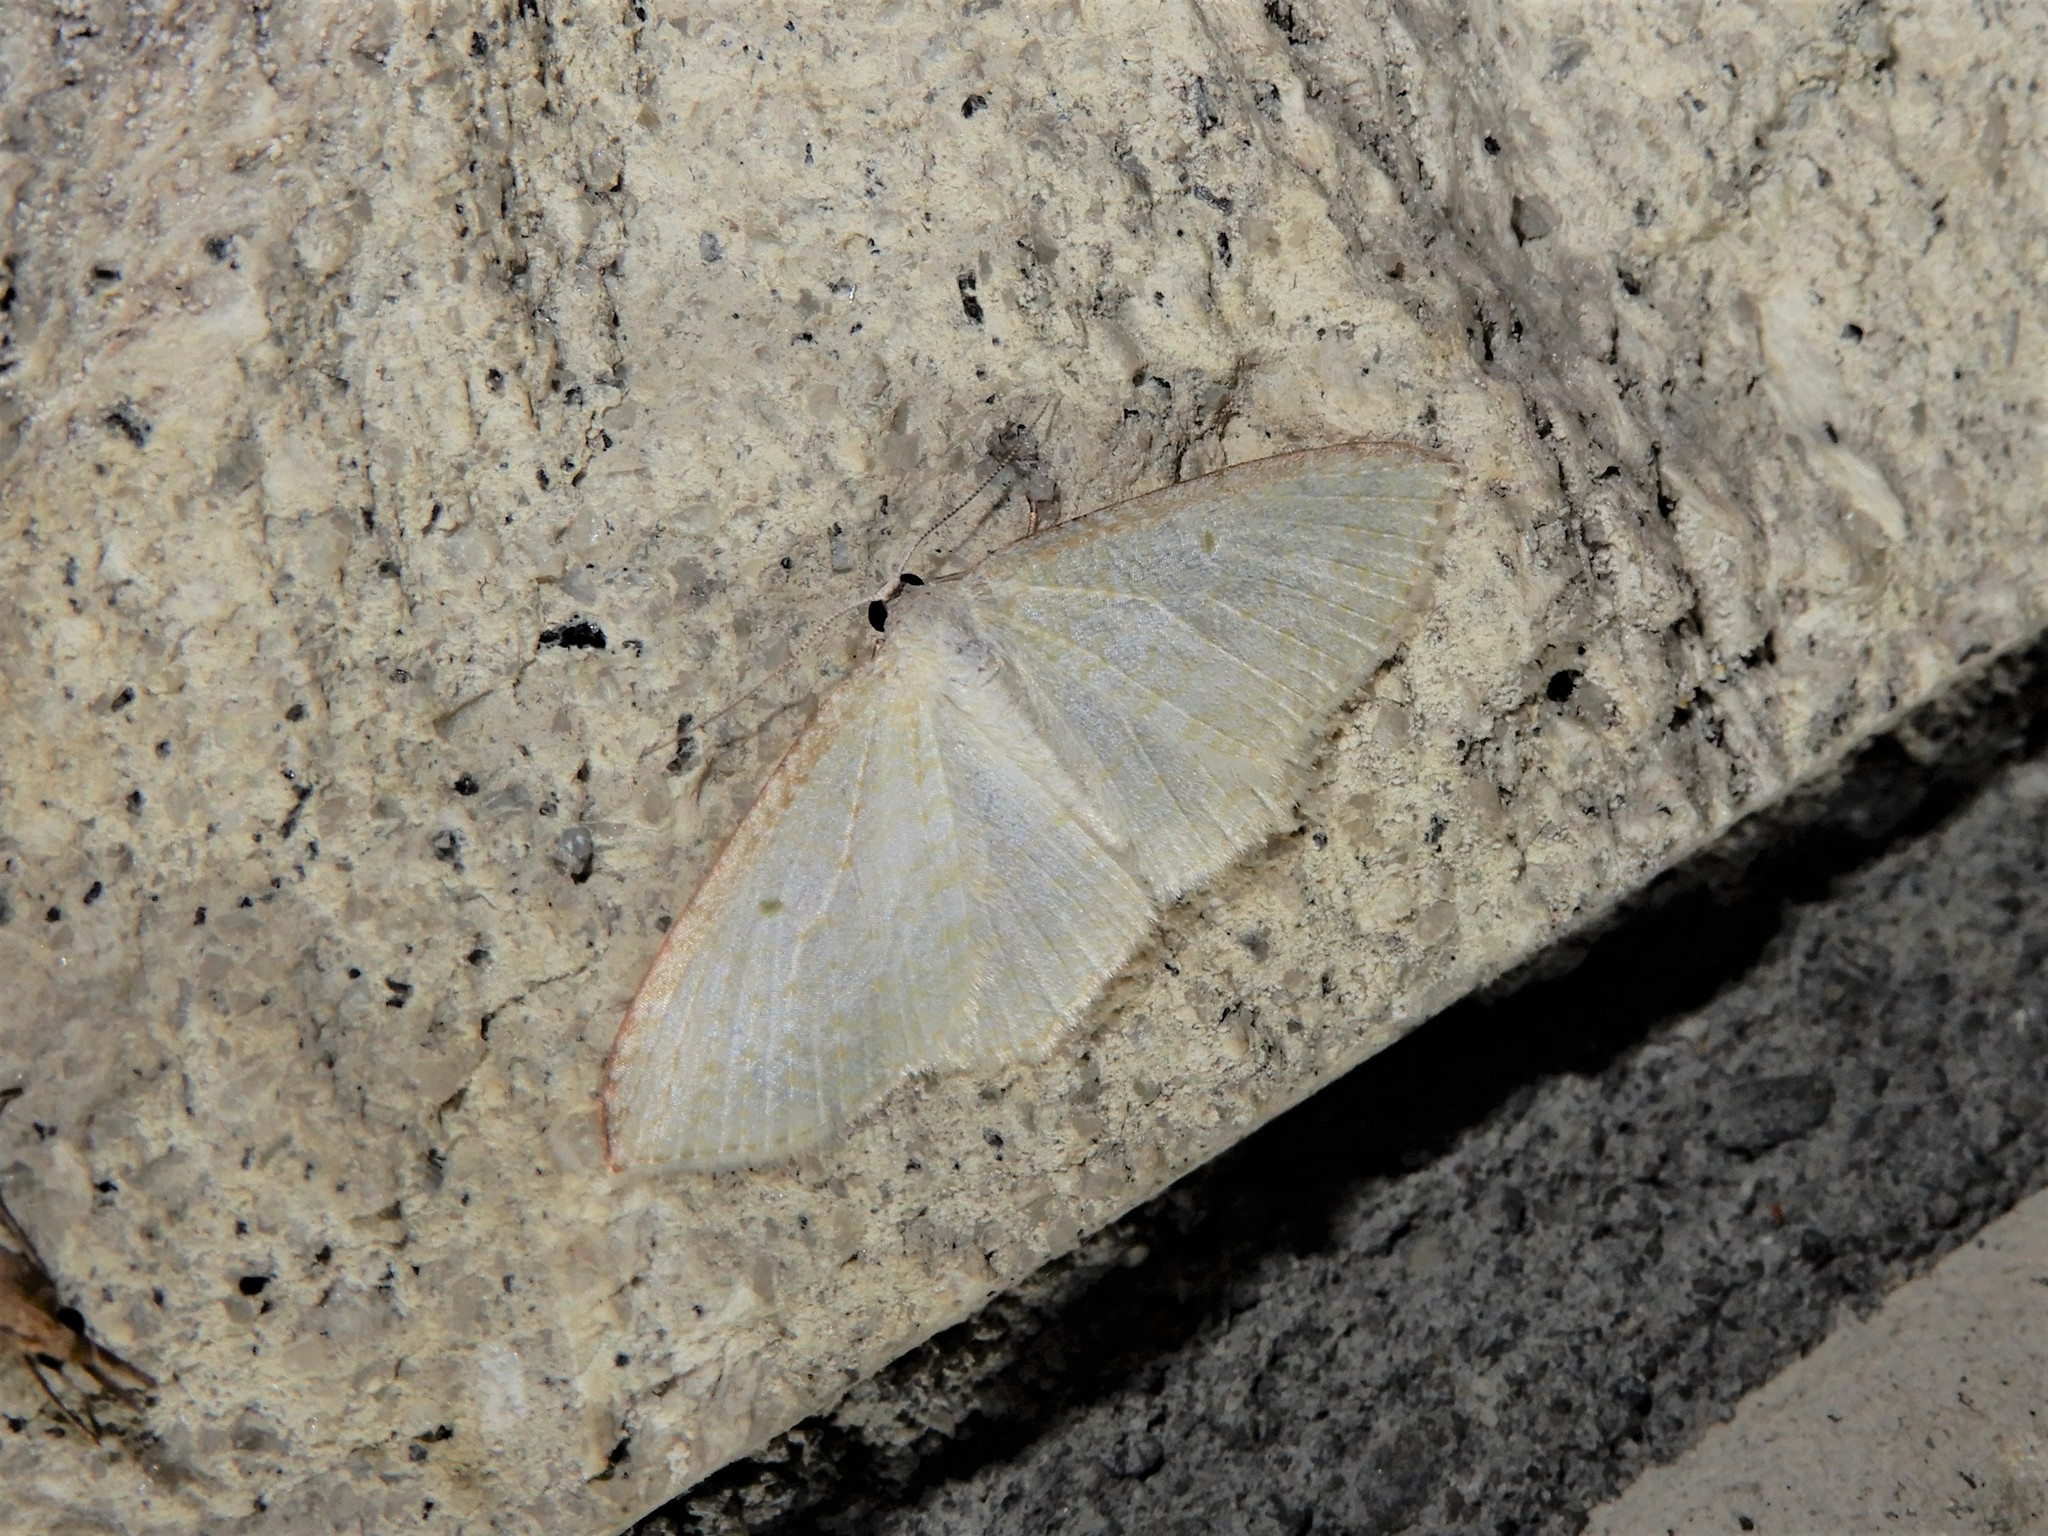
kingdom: Animalia
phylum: Arthropoda
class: Insecta
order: Lepidoptera
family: Geometridae
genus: Poecilasthena
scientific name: Poecilasthena pulchraria
